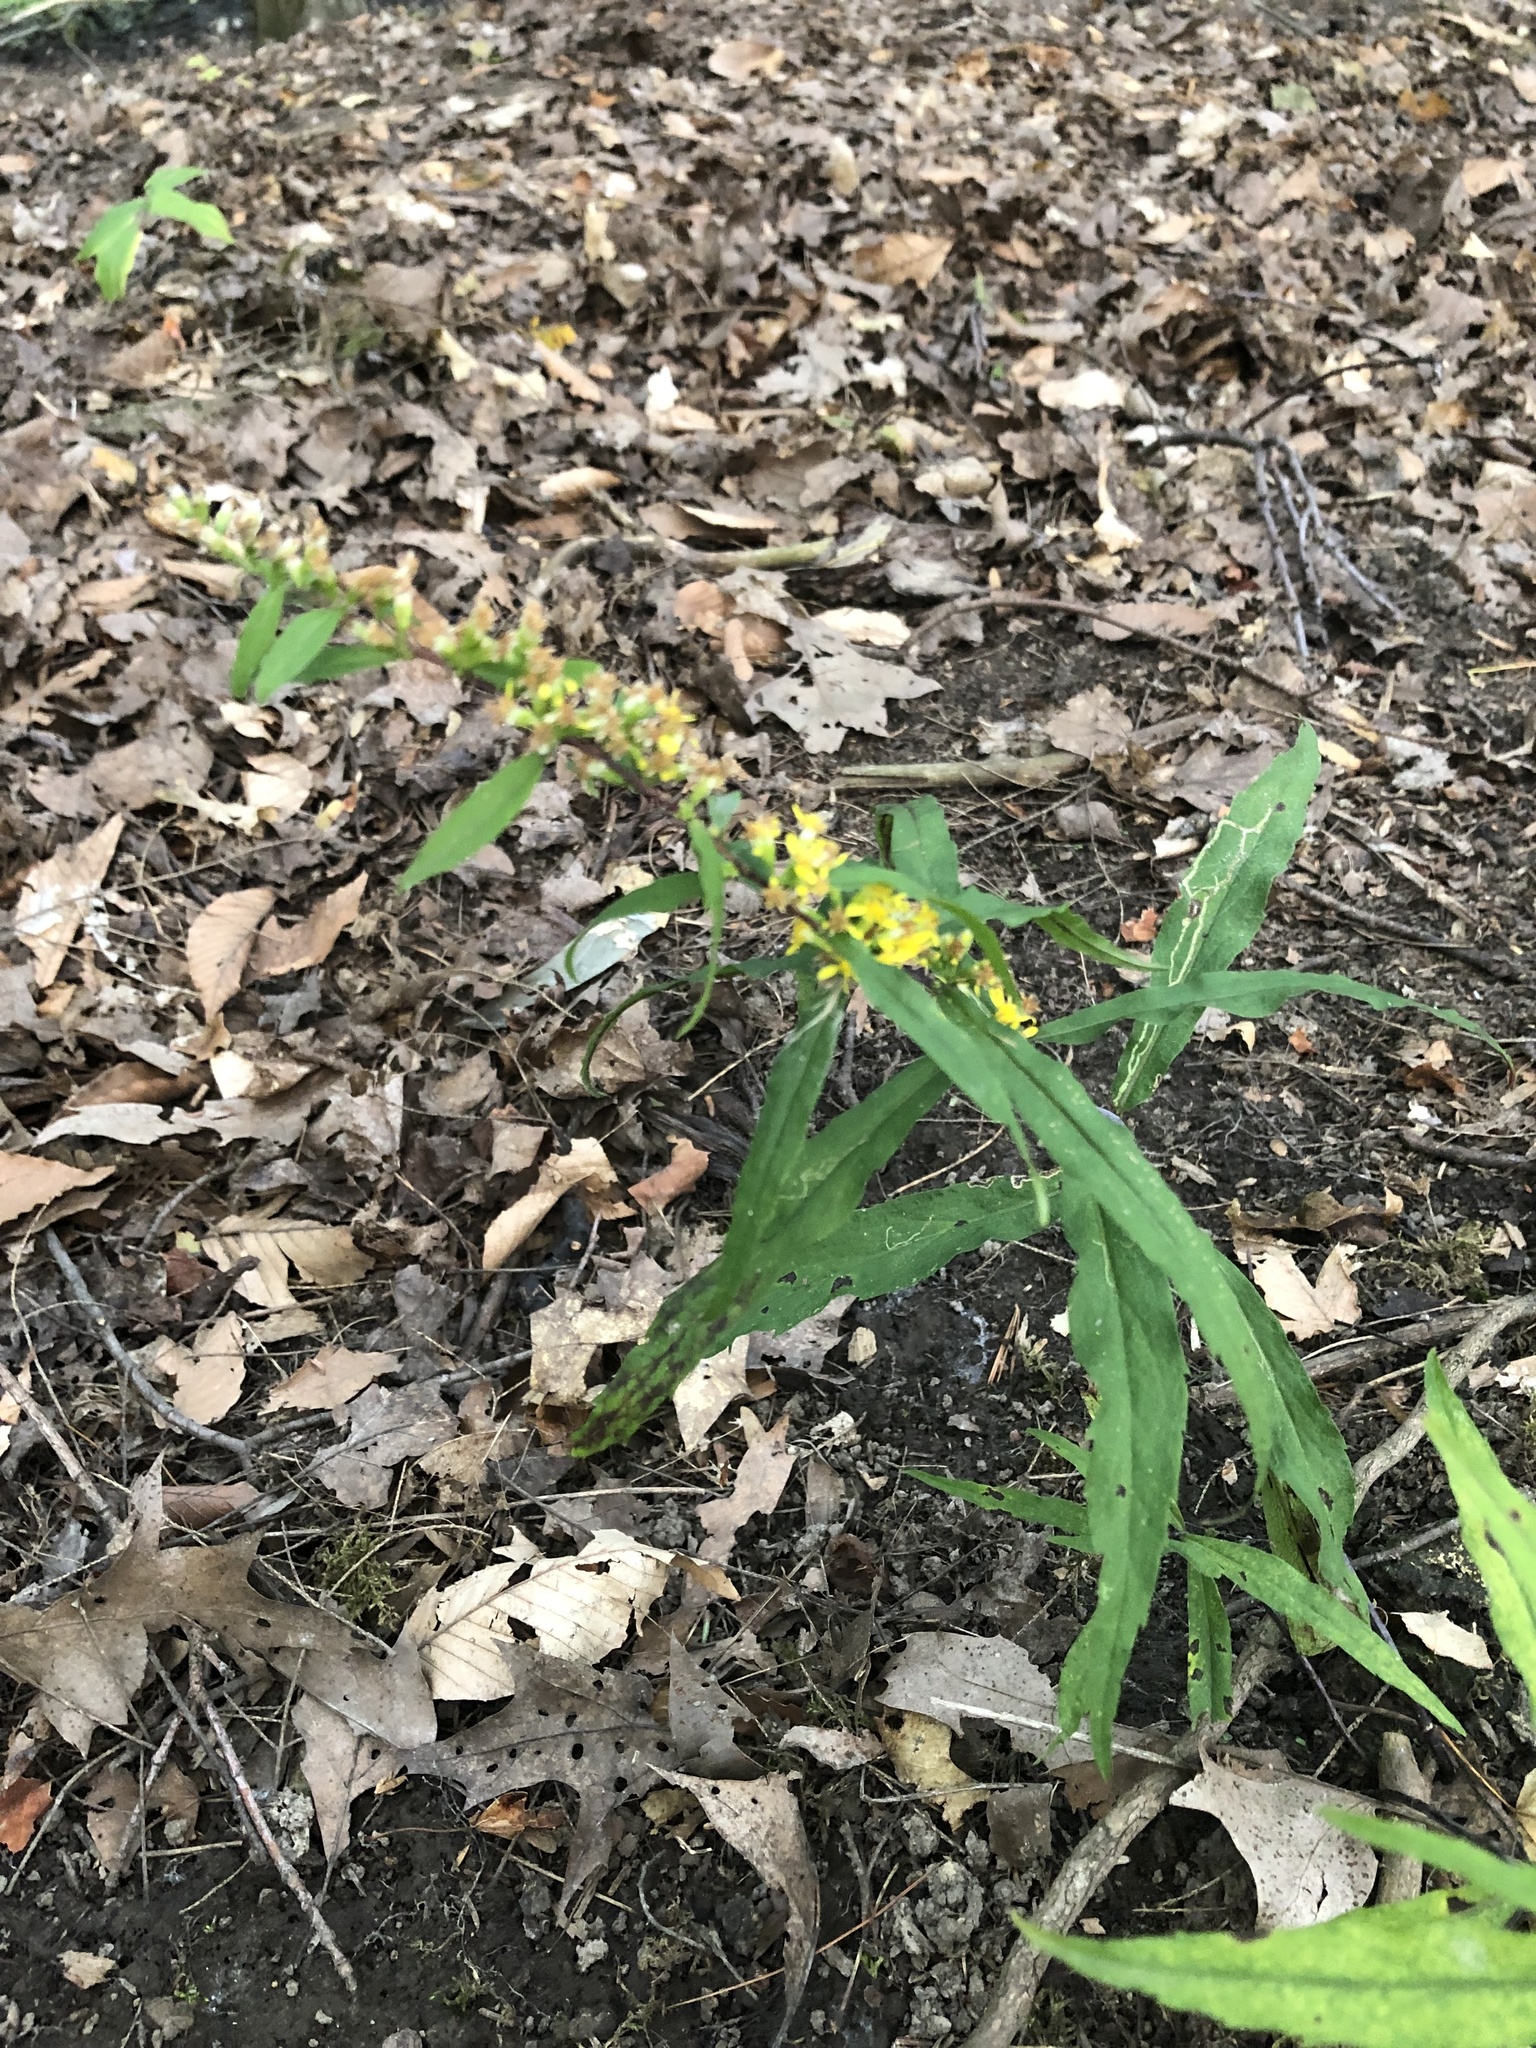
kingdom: Plantae
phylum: Tracheophyta
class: Magnoliopsida
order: Asterales
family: Asteraceae
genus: Solidago
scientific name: Solidago caesia
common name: Woodland goldenrod
